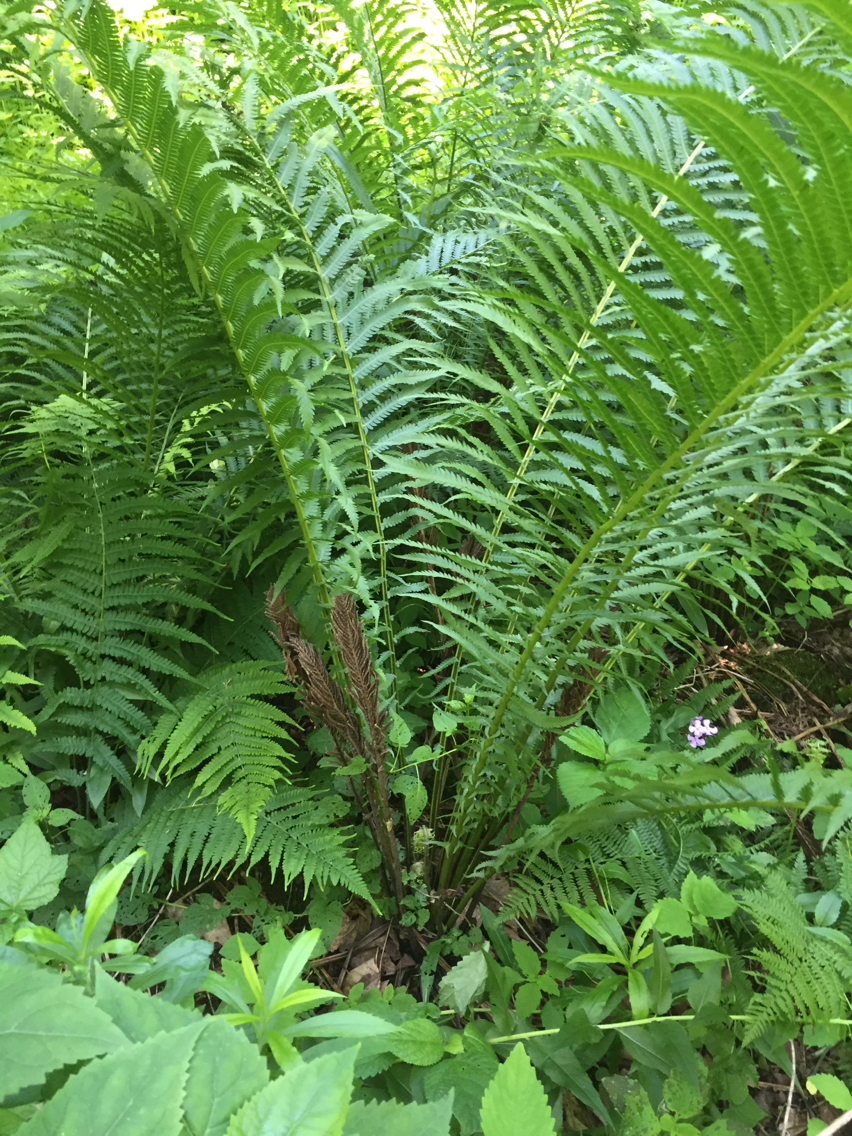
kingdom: Plantae
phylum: Tracheophyta
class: Polypodiopsida
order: Polypodiales
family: Onocleaceae
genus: Matteuccia
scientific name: Matteuccia struthiopteris
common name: Ostrich fern
